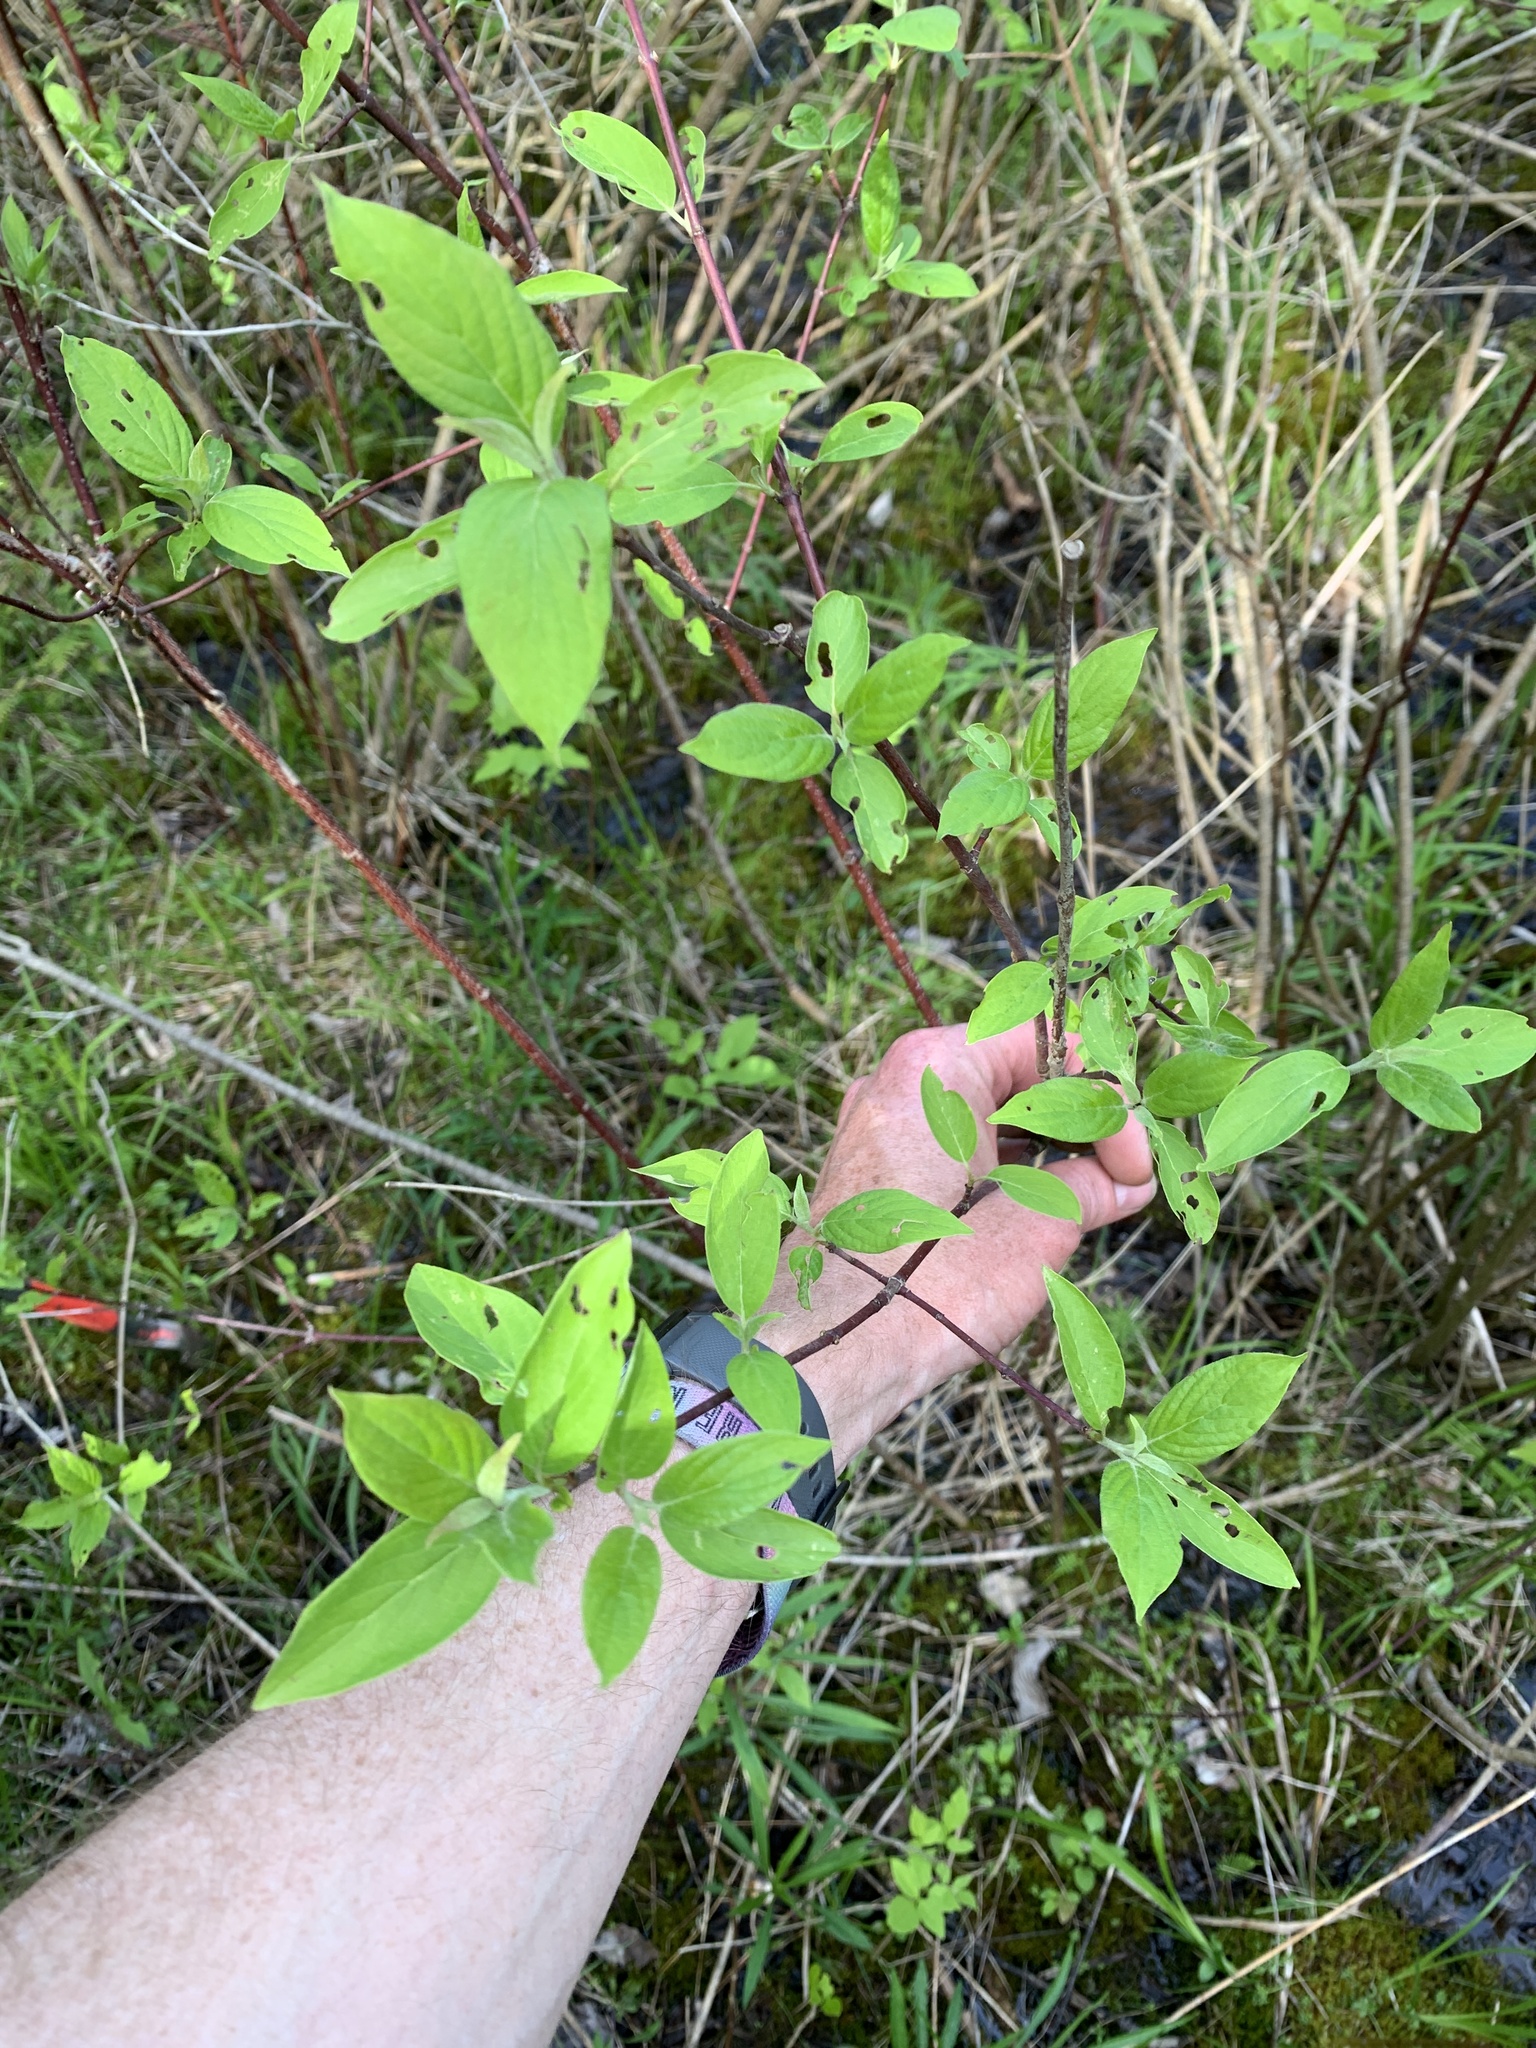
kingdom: Plantae
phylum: Tracheophyta
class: Magnoliopsida
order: Cornales
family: Cornaceae
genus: Cornus
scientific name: Cornus racemosa
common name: Panicled dogwood
